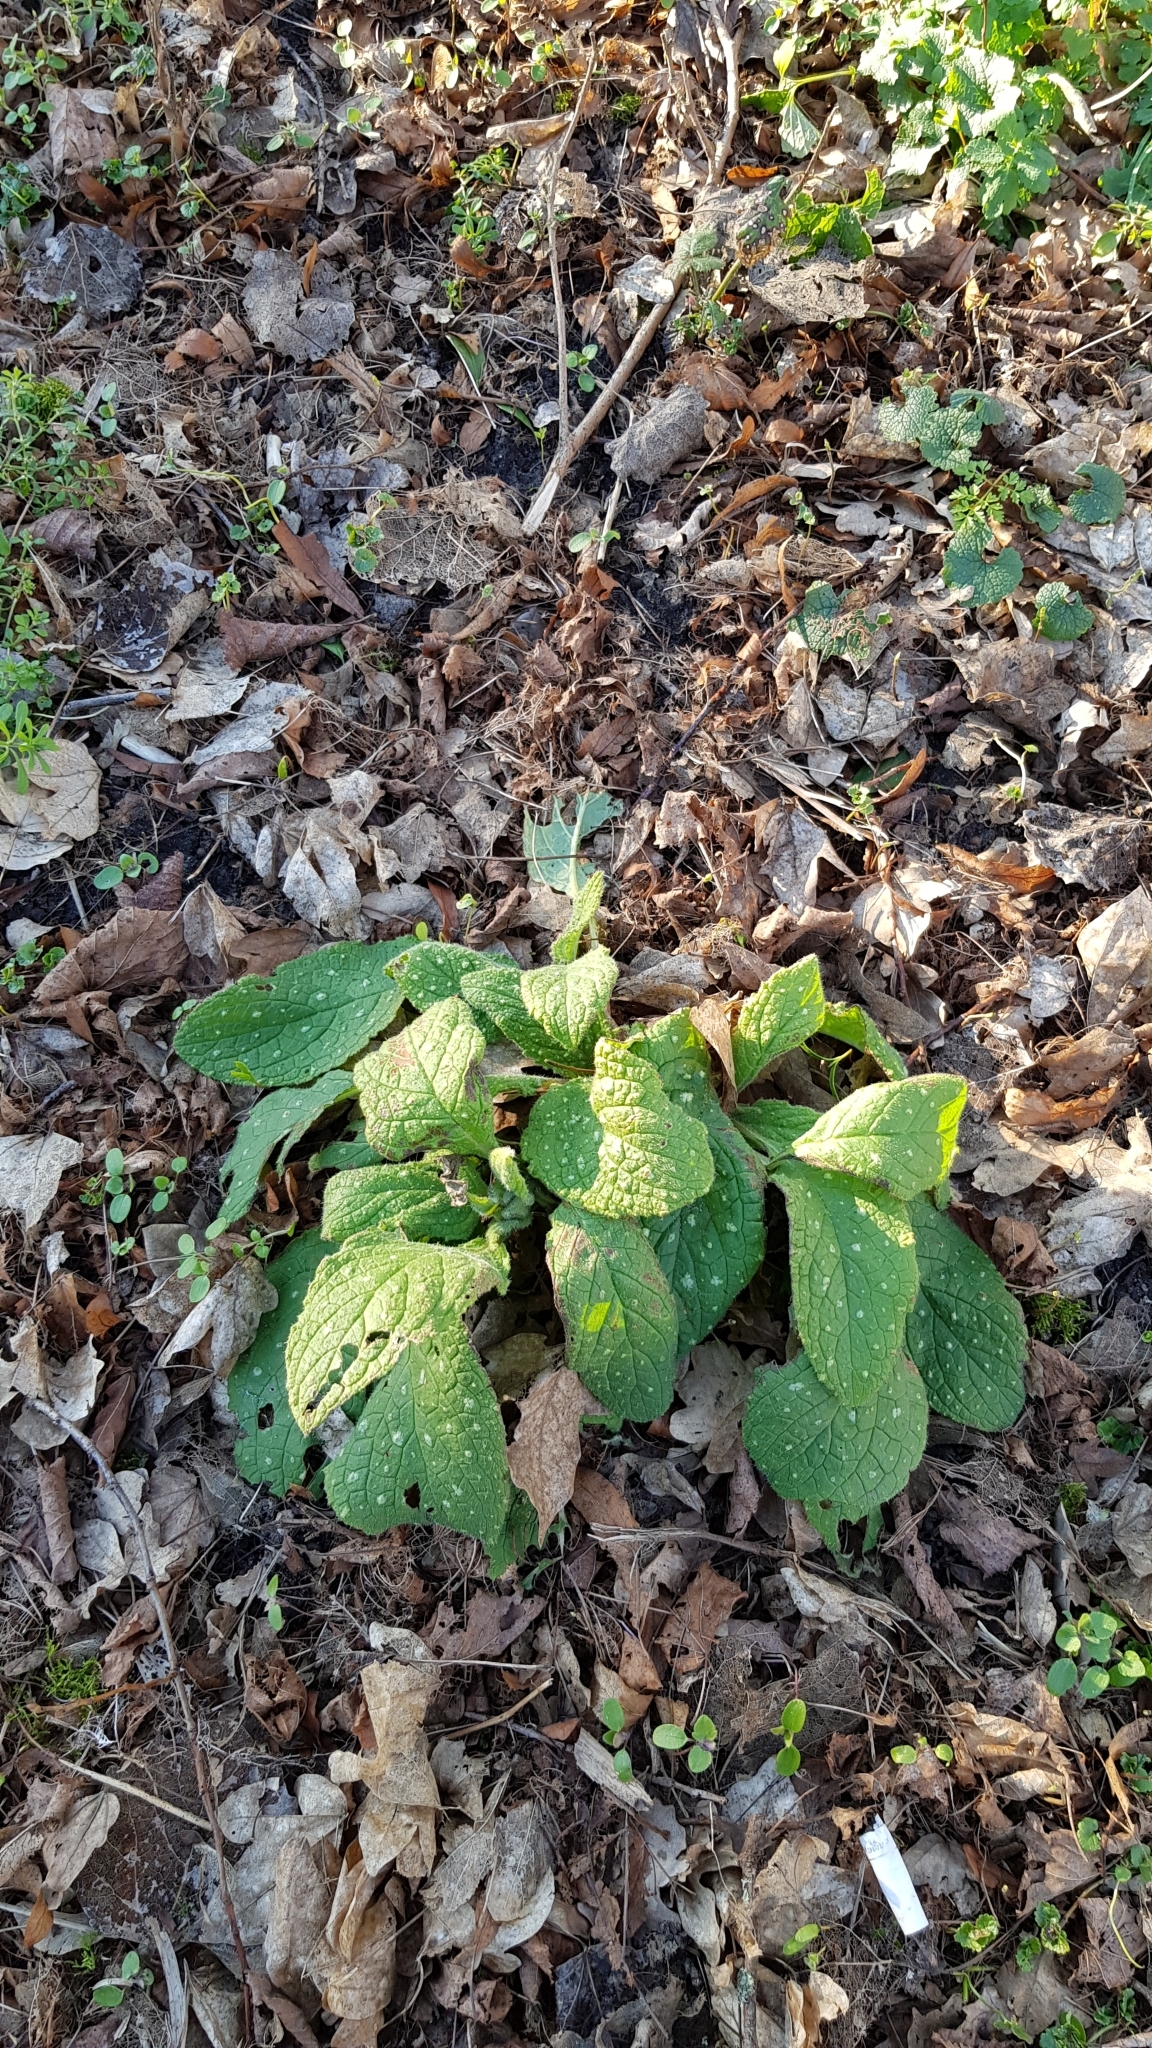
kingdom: Plantae
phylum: Tracheophyta
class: Magnoliopsida
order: Boraginales
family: Boraginaceae
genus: Pentaglottis
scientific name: Pentaglottis sempervirens
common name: Green alkanet
